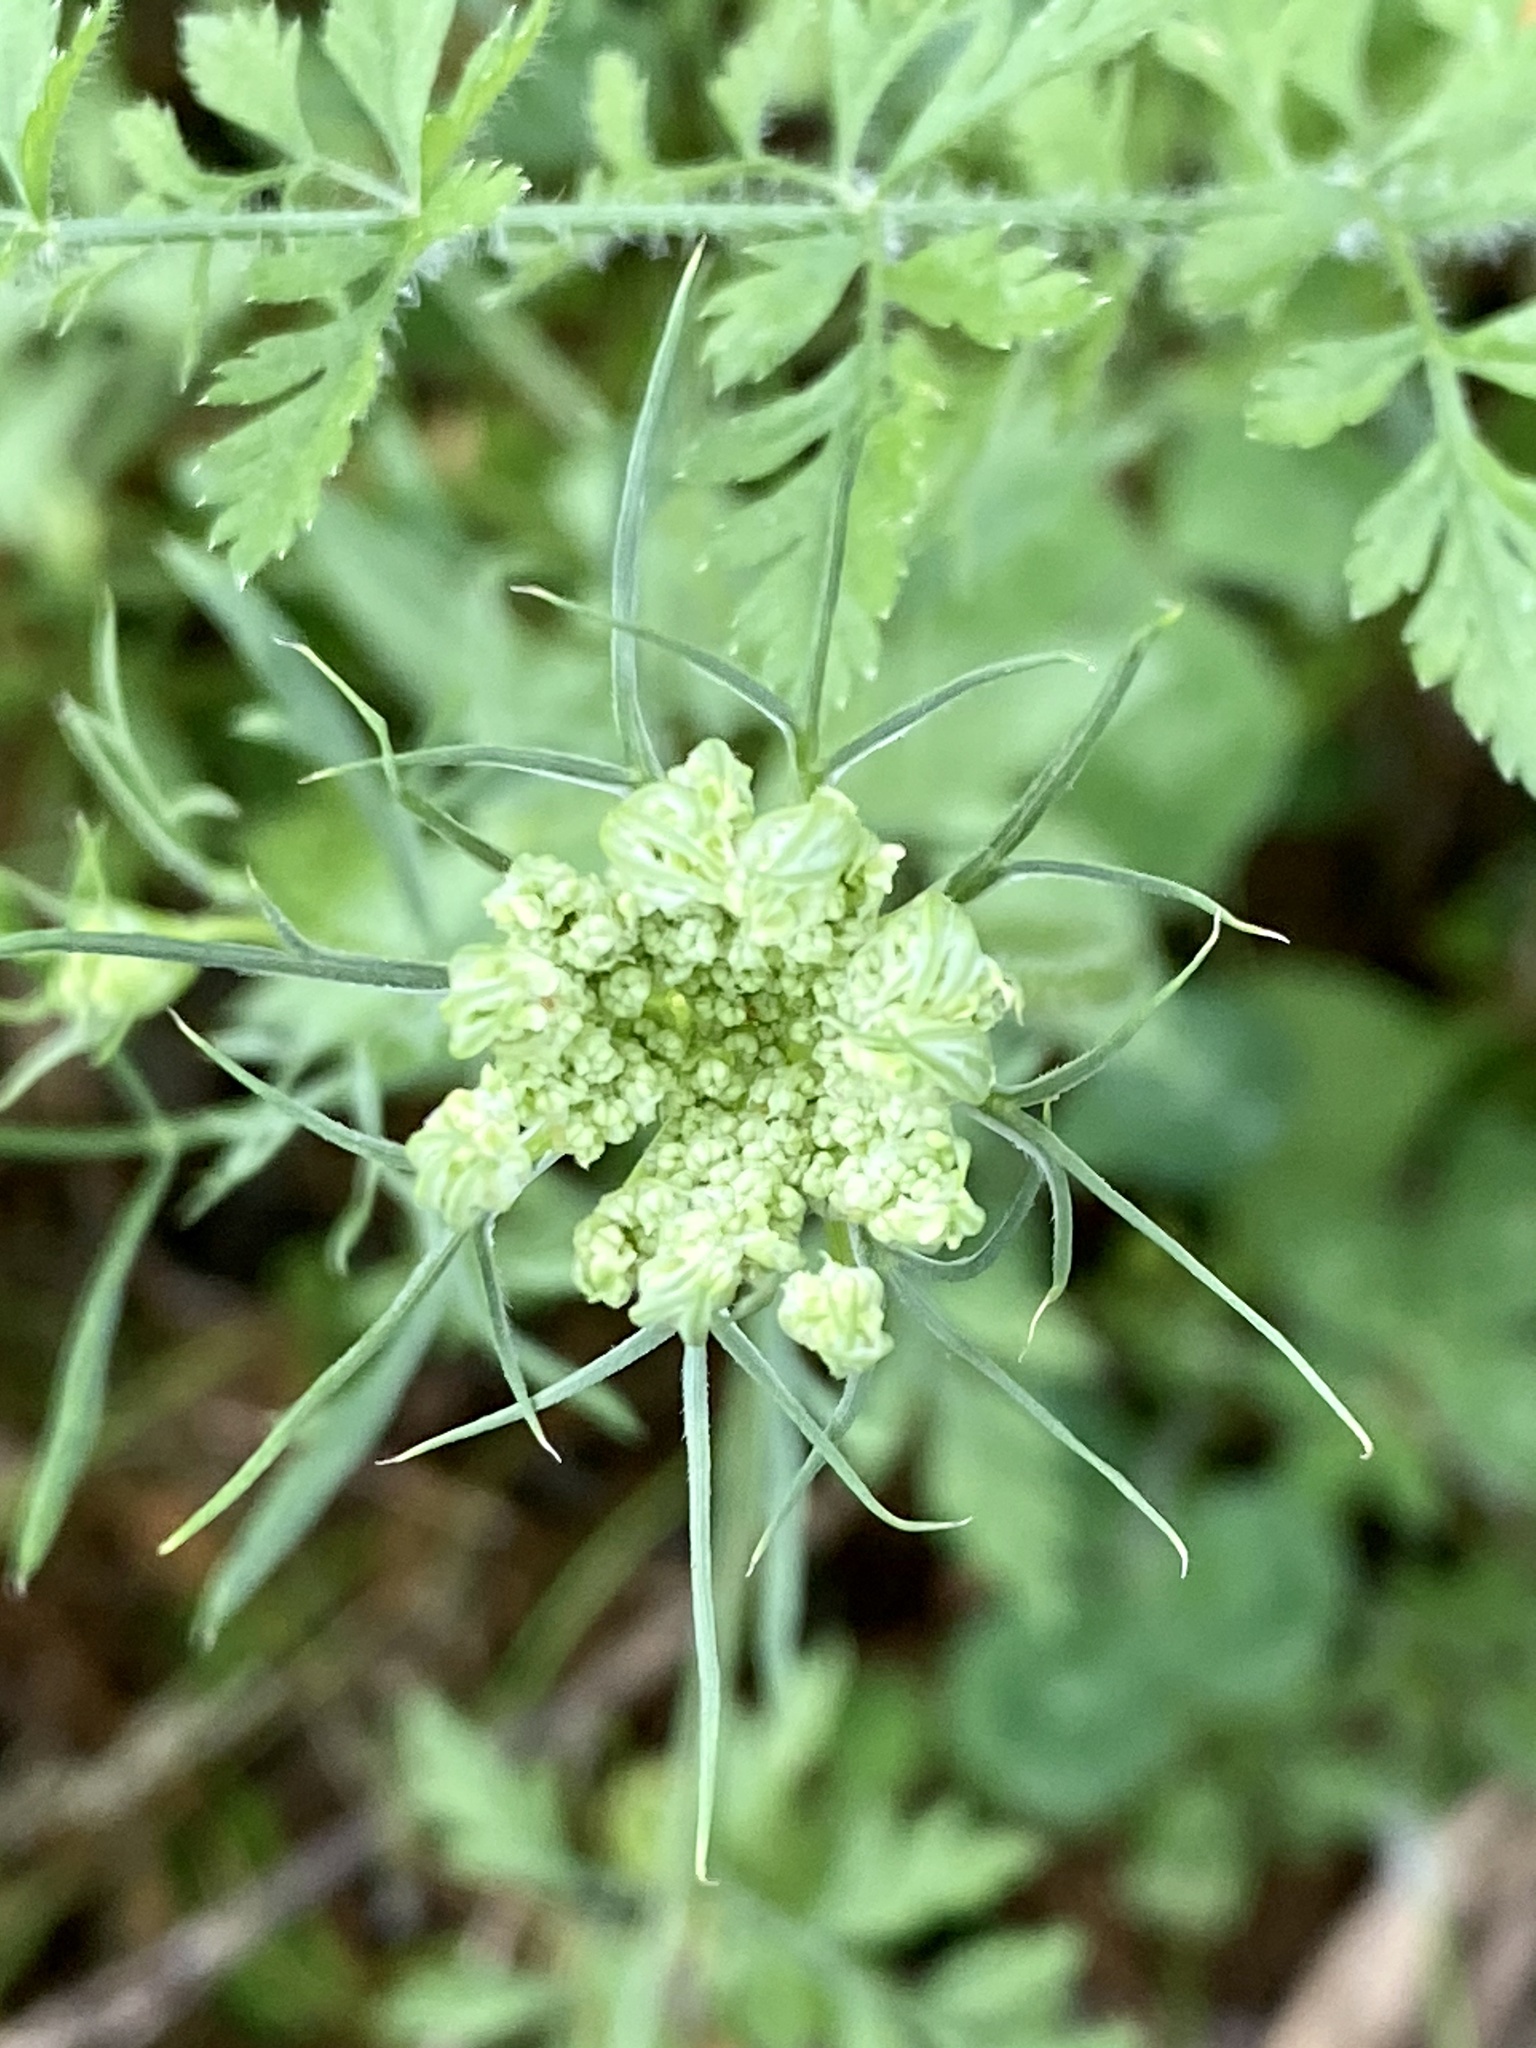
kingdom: Plantae
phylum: Tracheophyta
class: Magnoliopsida
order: Apiales
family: Apiaceae
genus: Daucus
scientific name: Daucus carota
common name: Wild carrot
